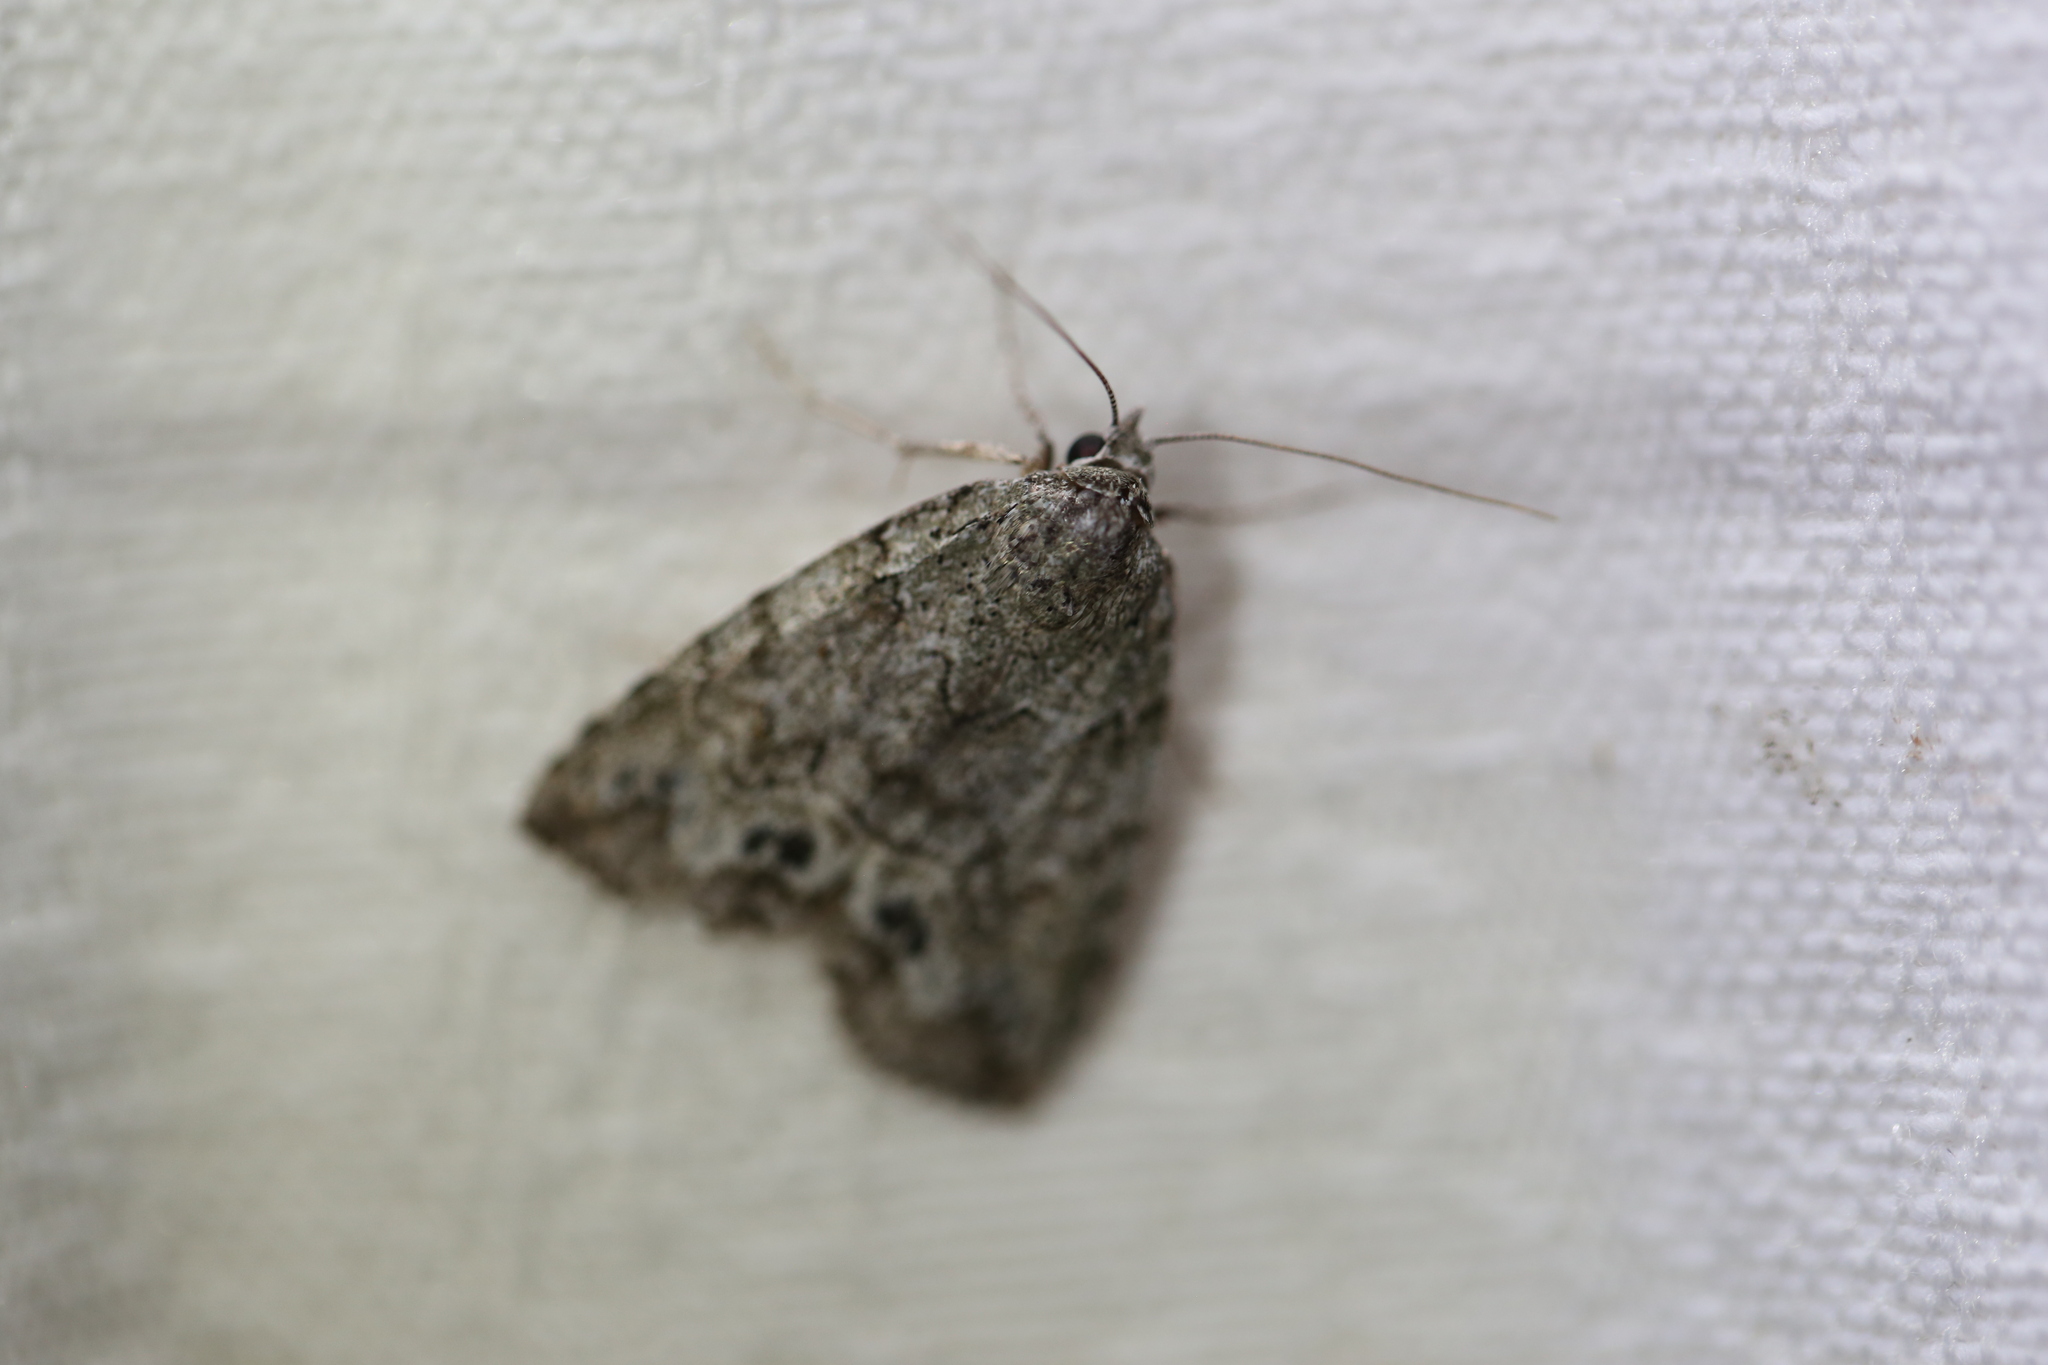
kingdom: Animalia
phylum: Arthropoda
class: Insecta
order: Lepidoptera
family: Nolidae
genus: Calathusa
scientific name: Calathusa basicunea
